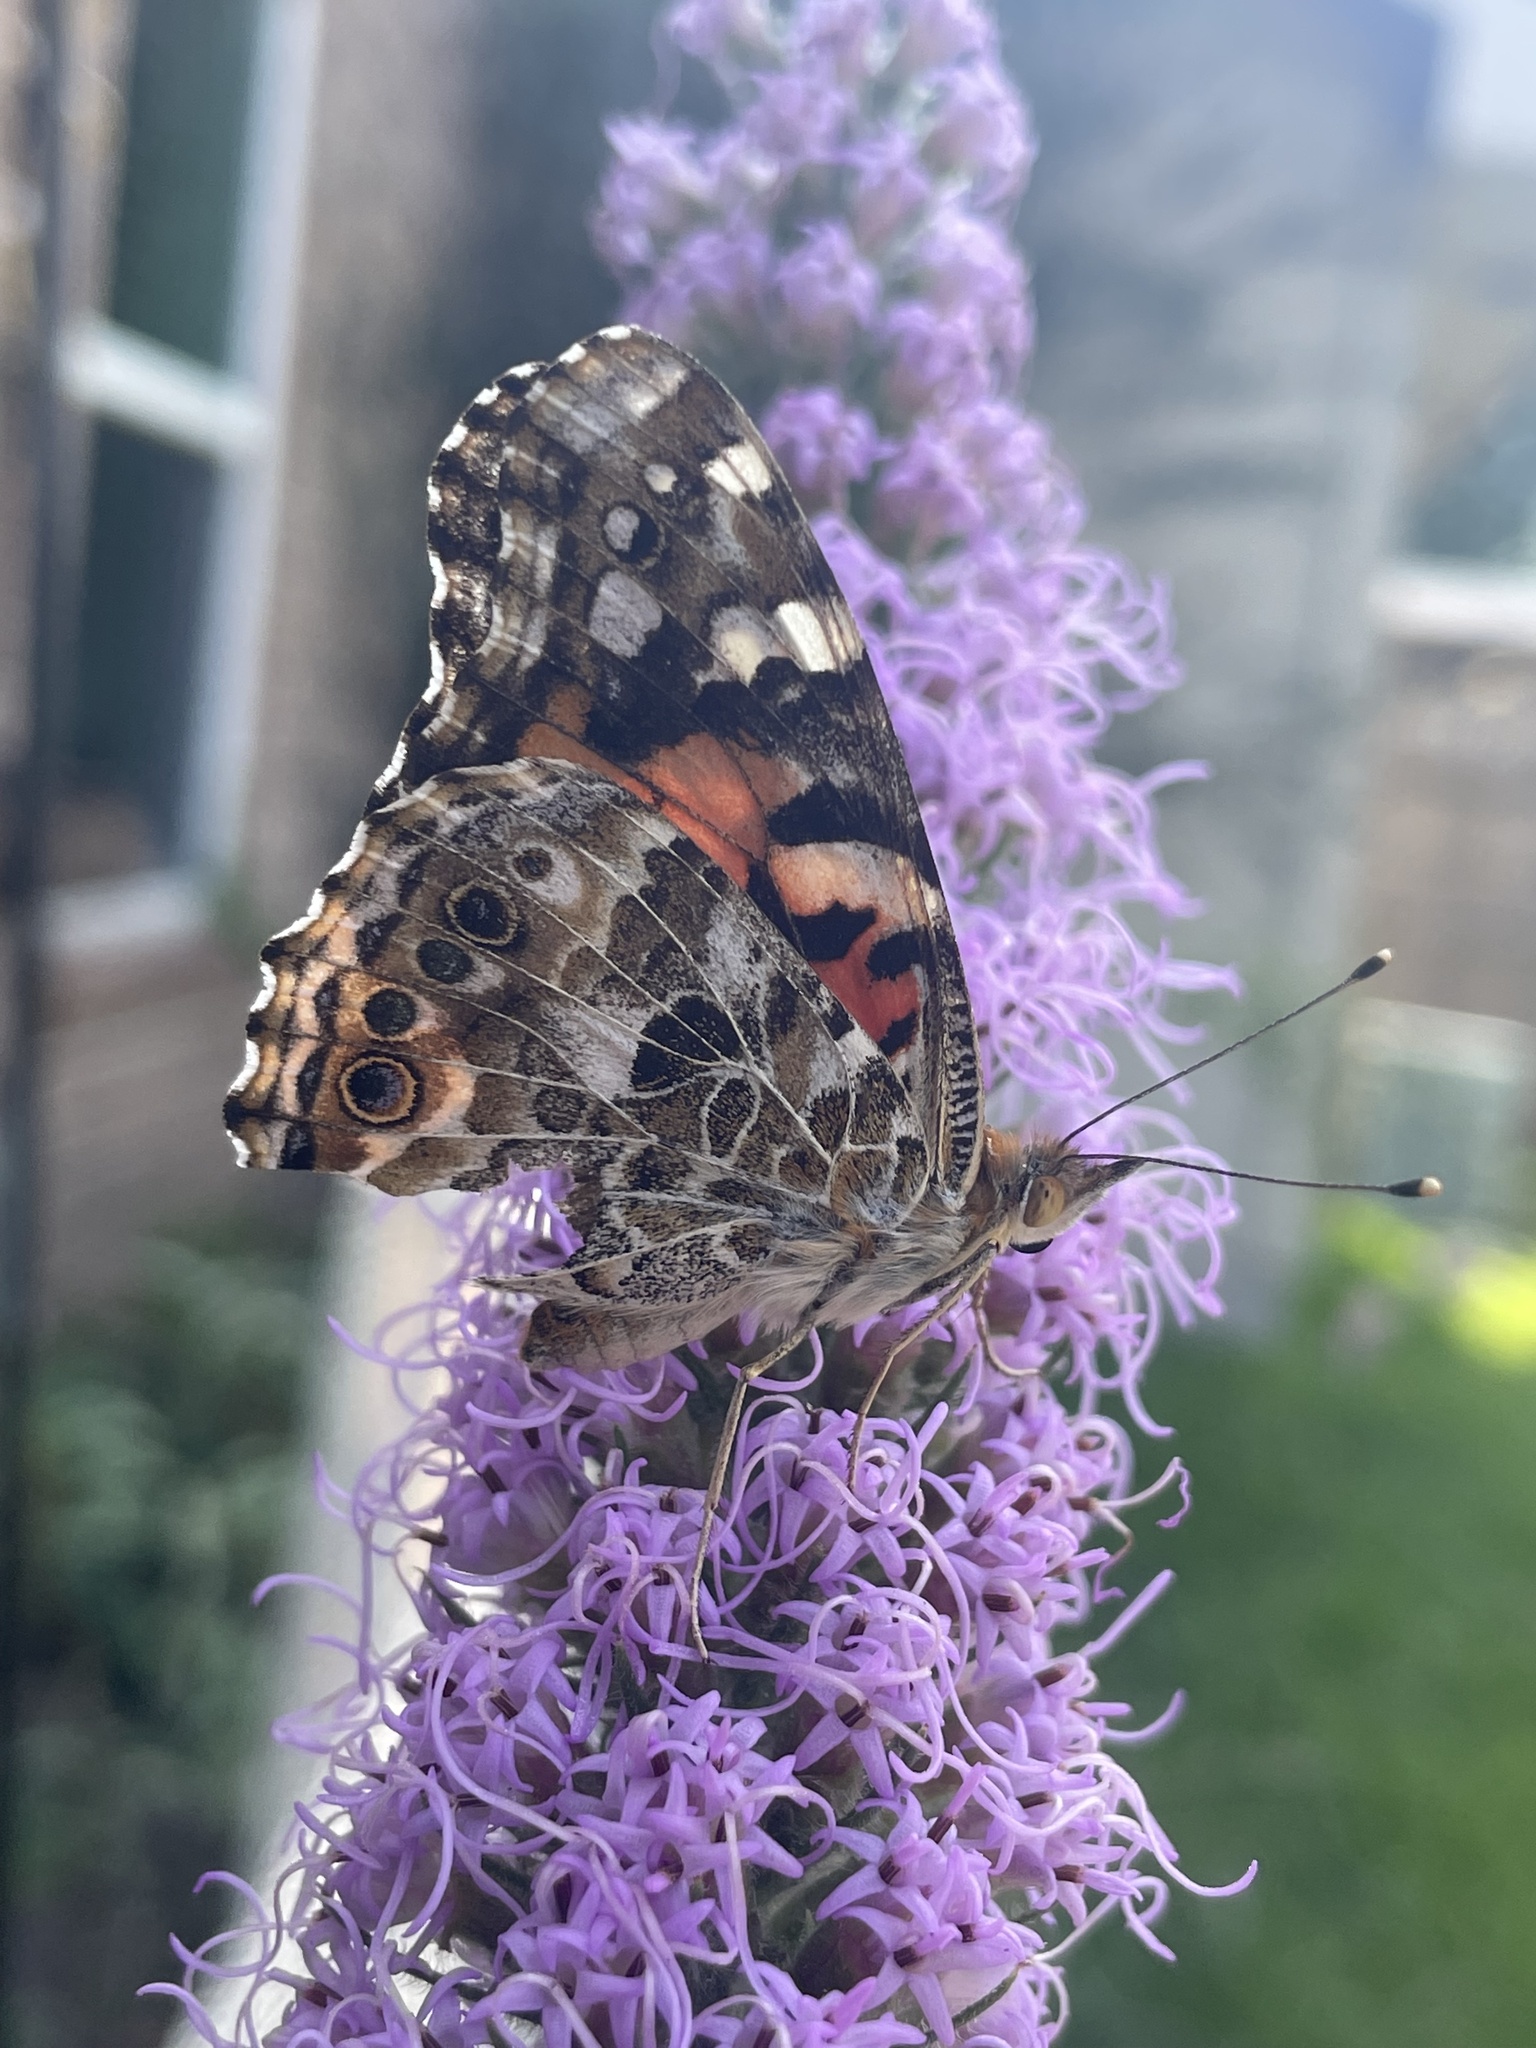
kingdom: Animalia
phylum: Arthropoda
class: Insecta
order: Lepidoptera
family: Nymphalidae
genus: Vanessa
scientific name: Vanessa cardui
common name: Painted lady
